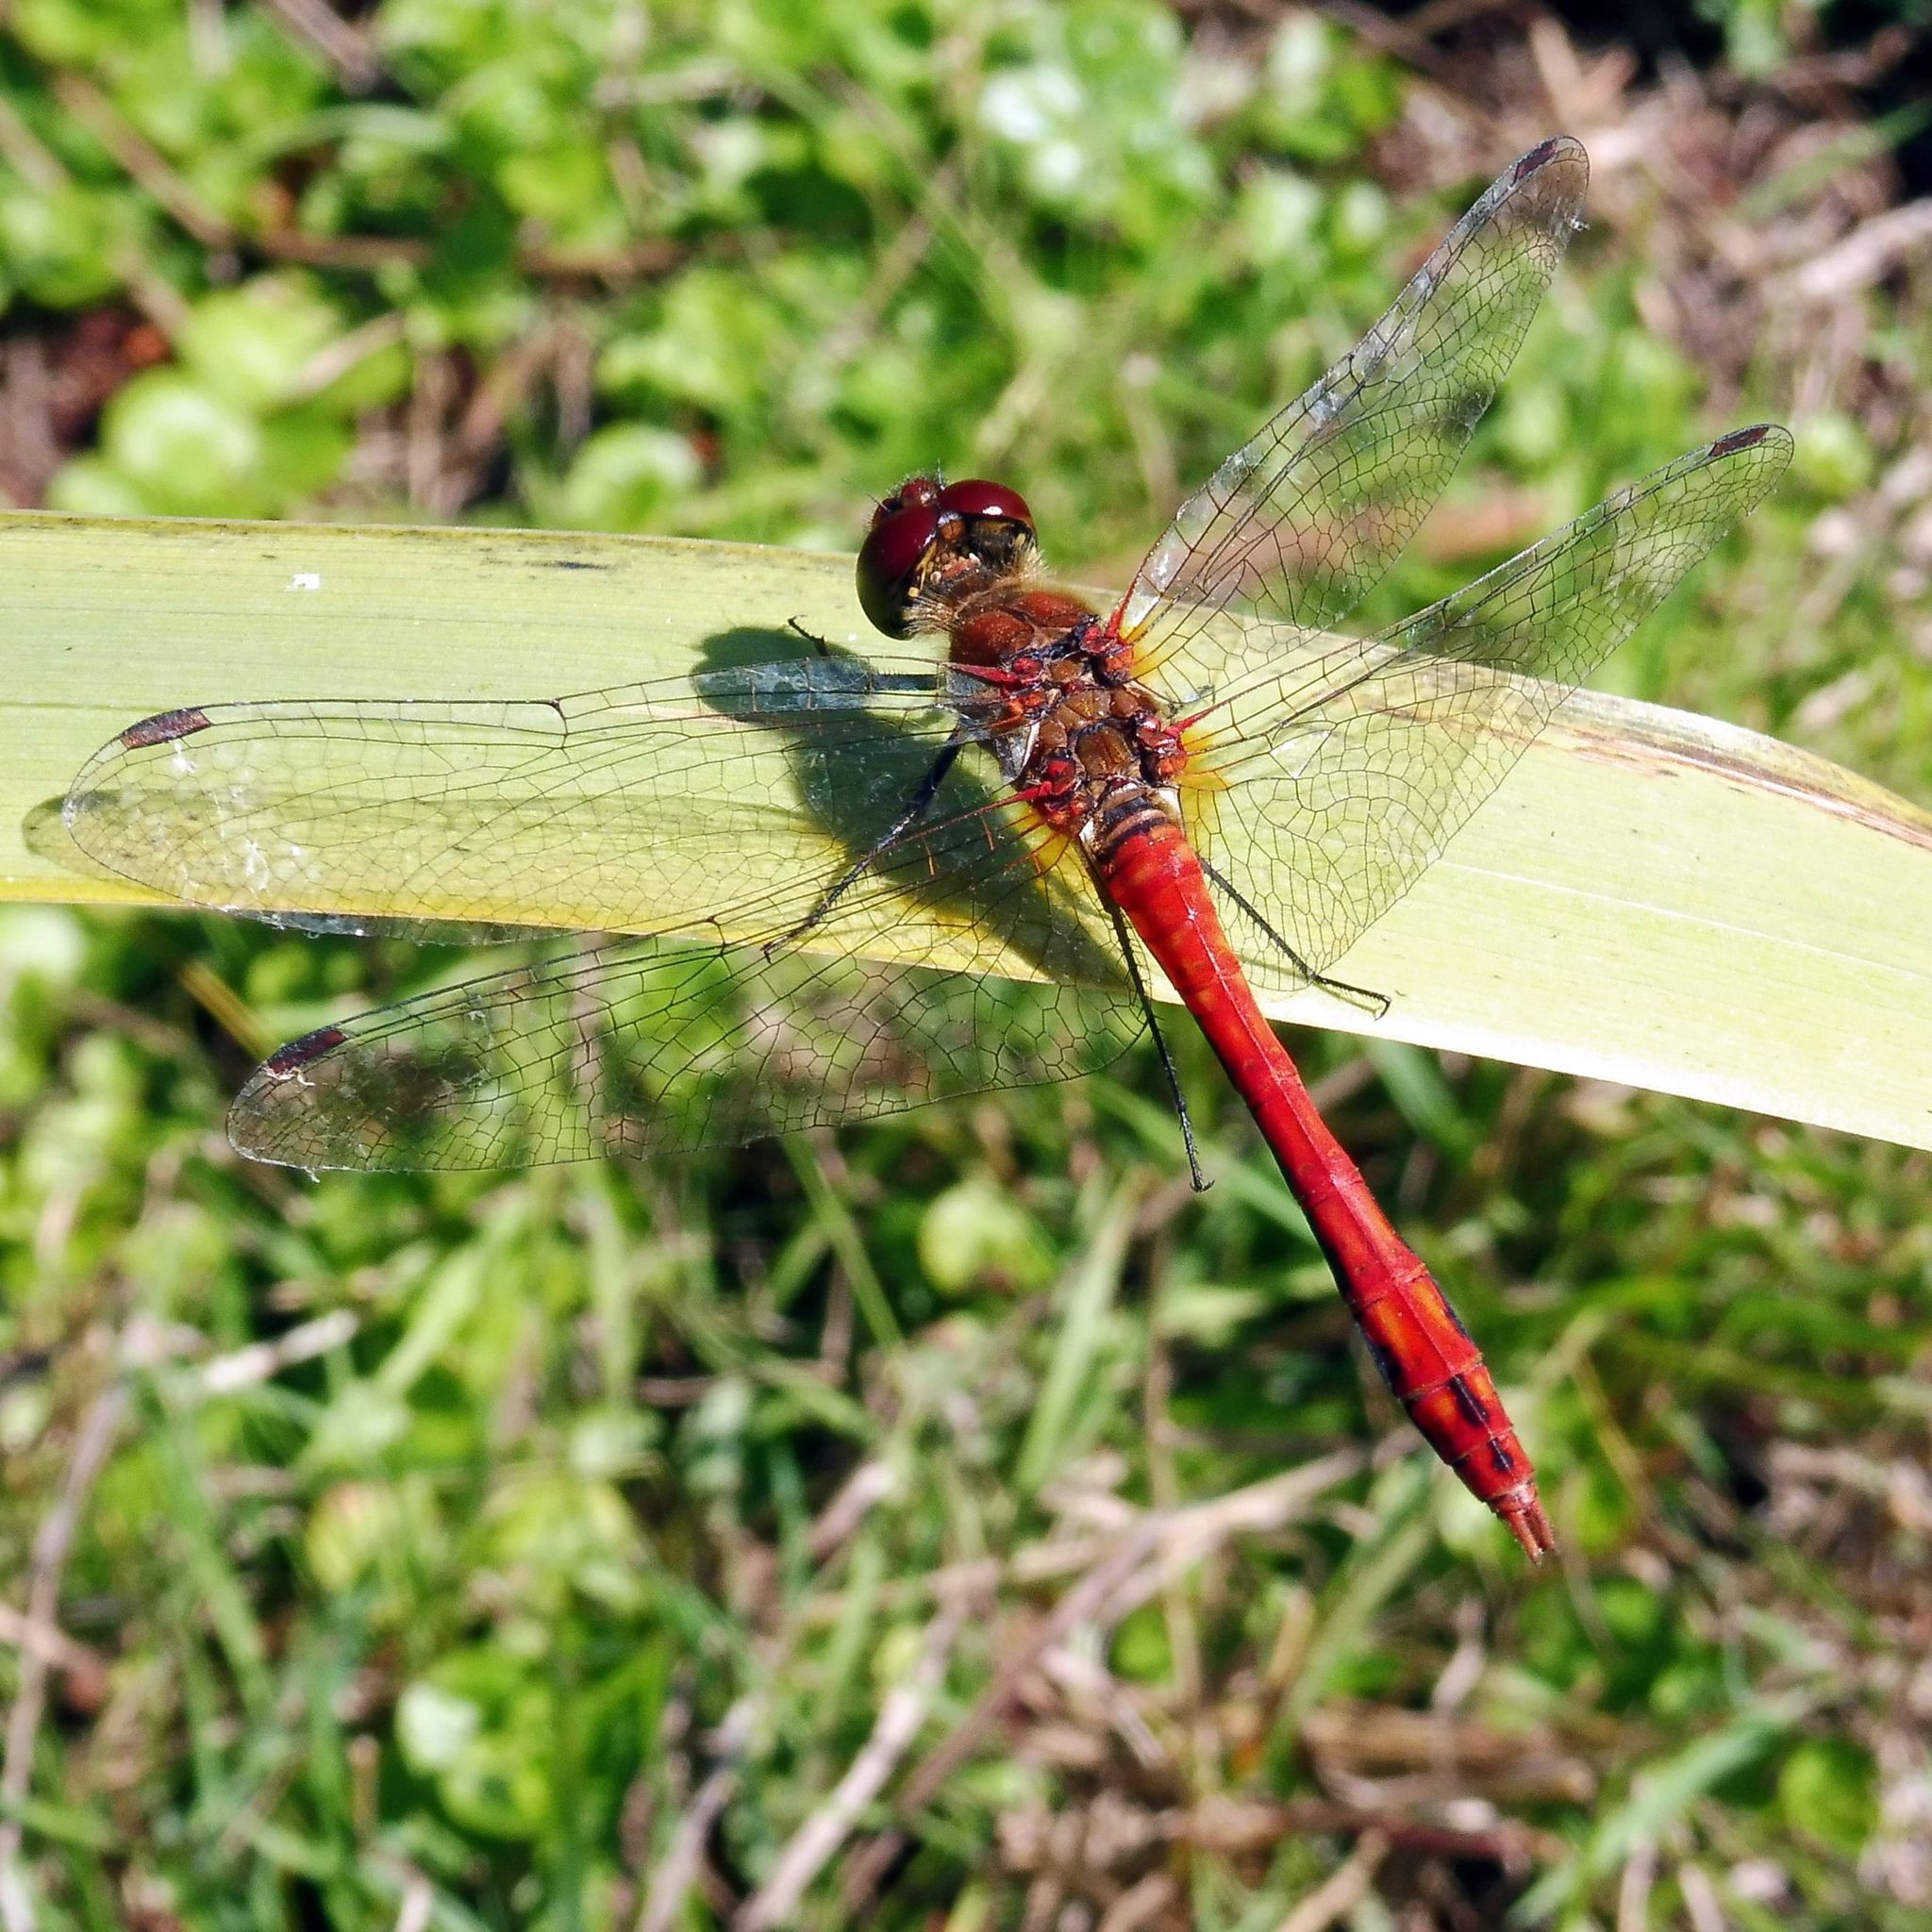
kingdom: Animalia
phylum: Arthropoda
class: Insecta
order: Odonata
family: Libellulidae
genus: Sympetrum
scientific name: Sympetrum sanguineum
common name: Ruddy darter
